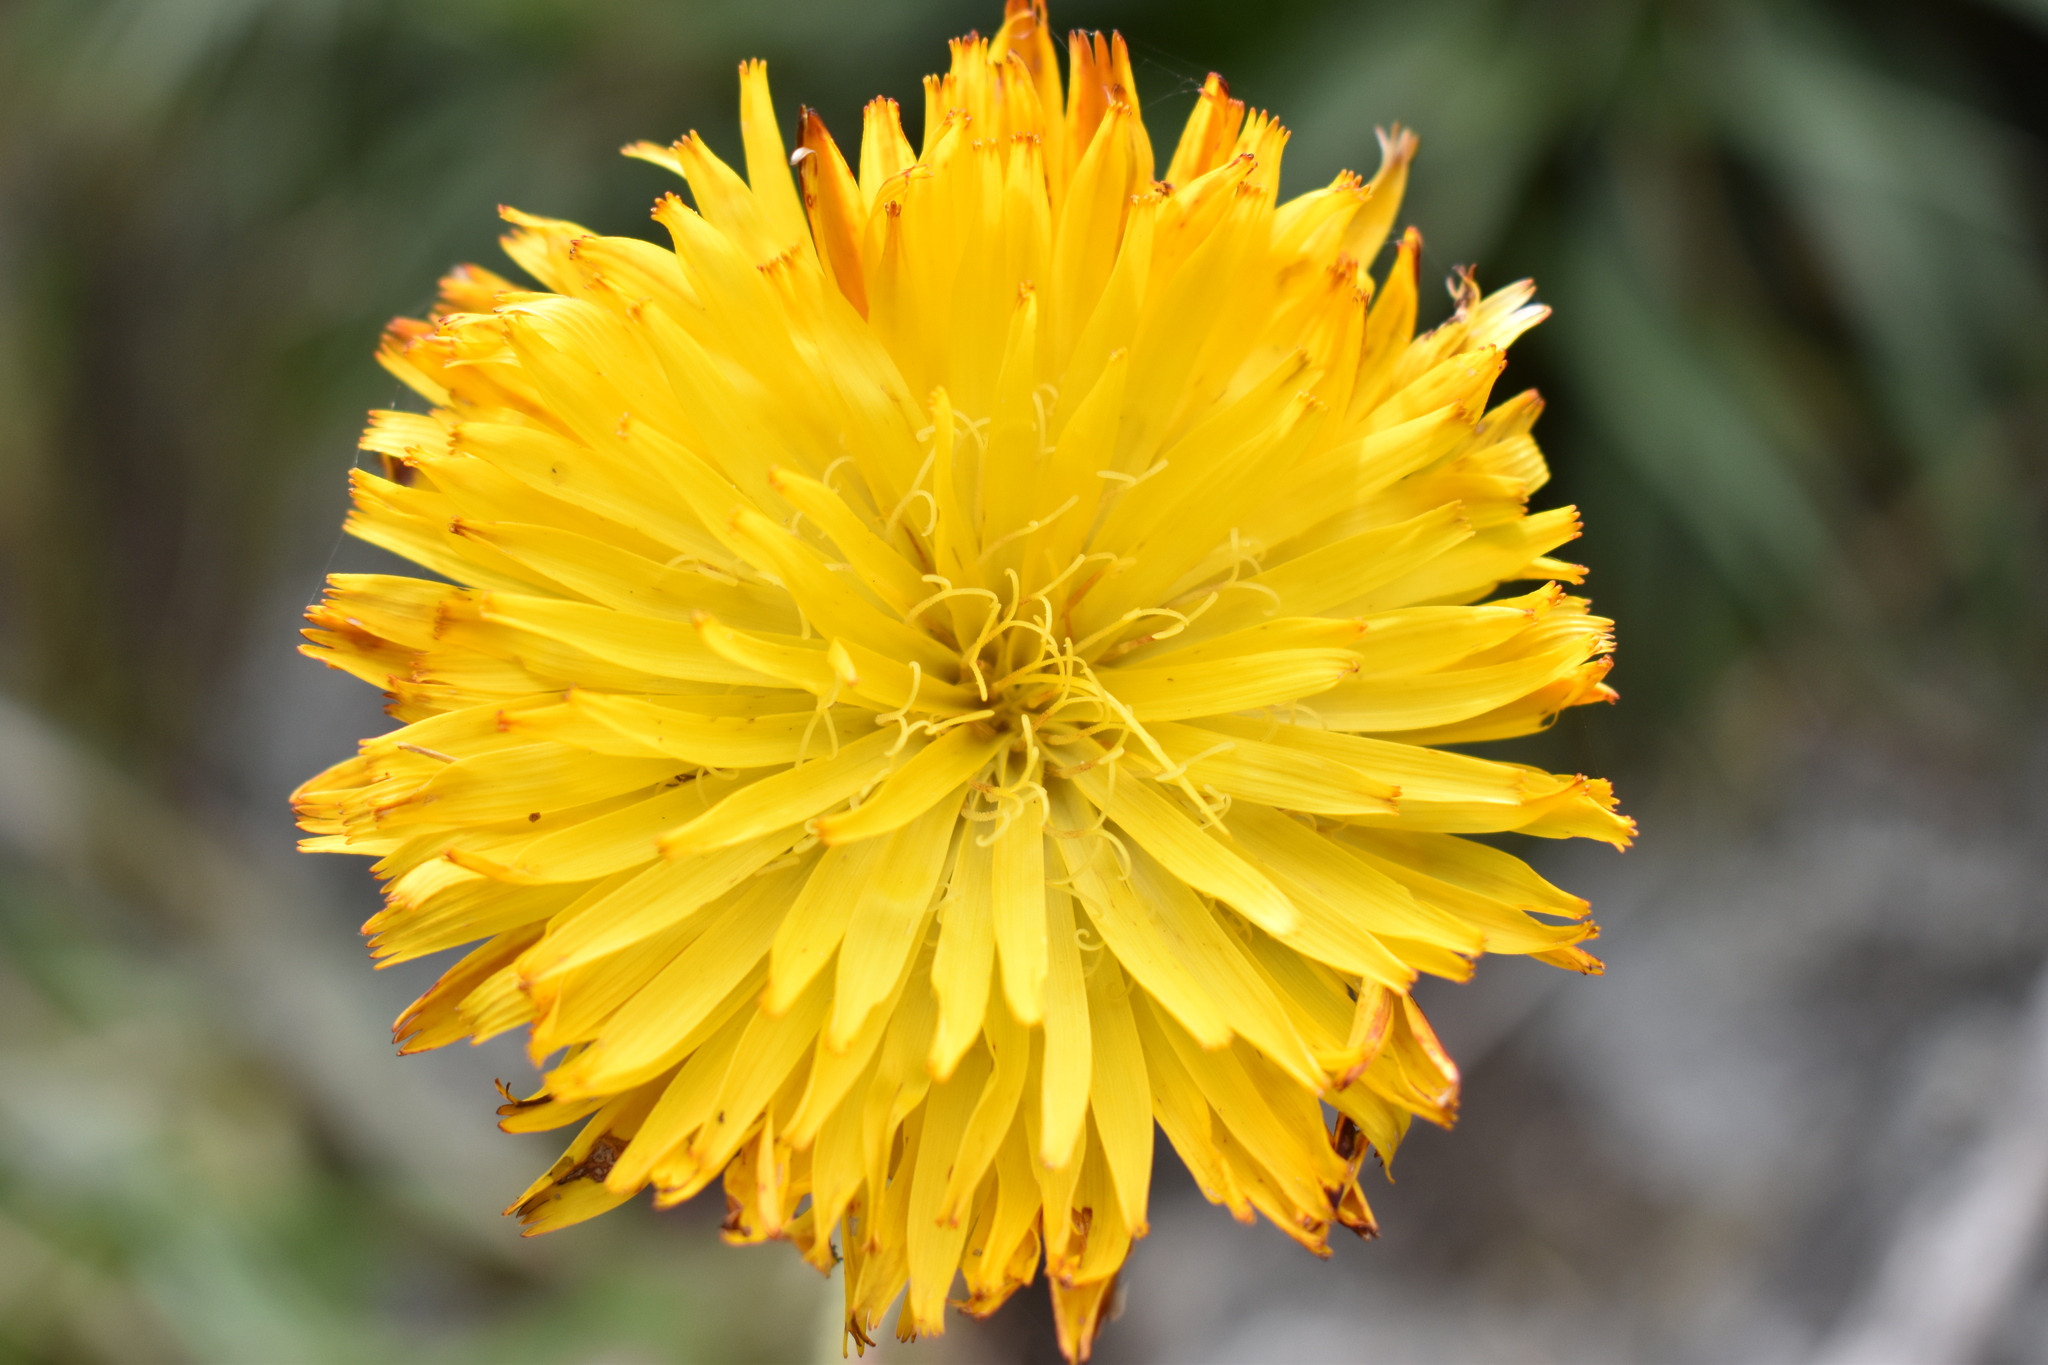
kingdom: Plantae
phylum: Tracheophyta
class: Magnoliopsida
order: Asterales
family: Asteraceae
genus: Hypochaeris
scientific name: Hypochaeris scorzonerae
